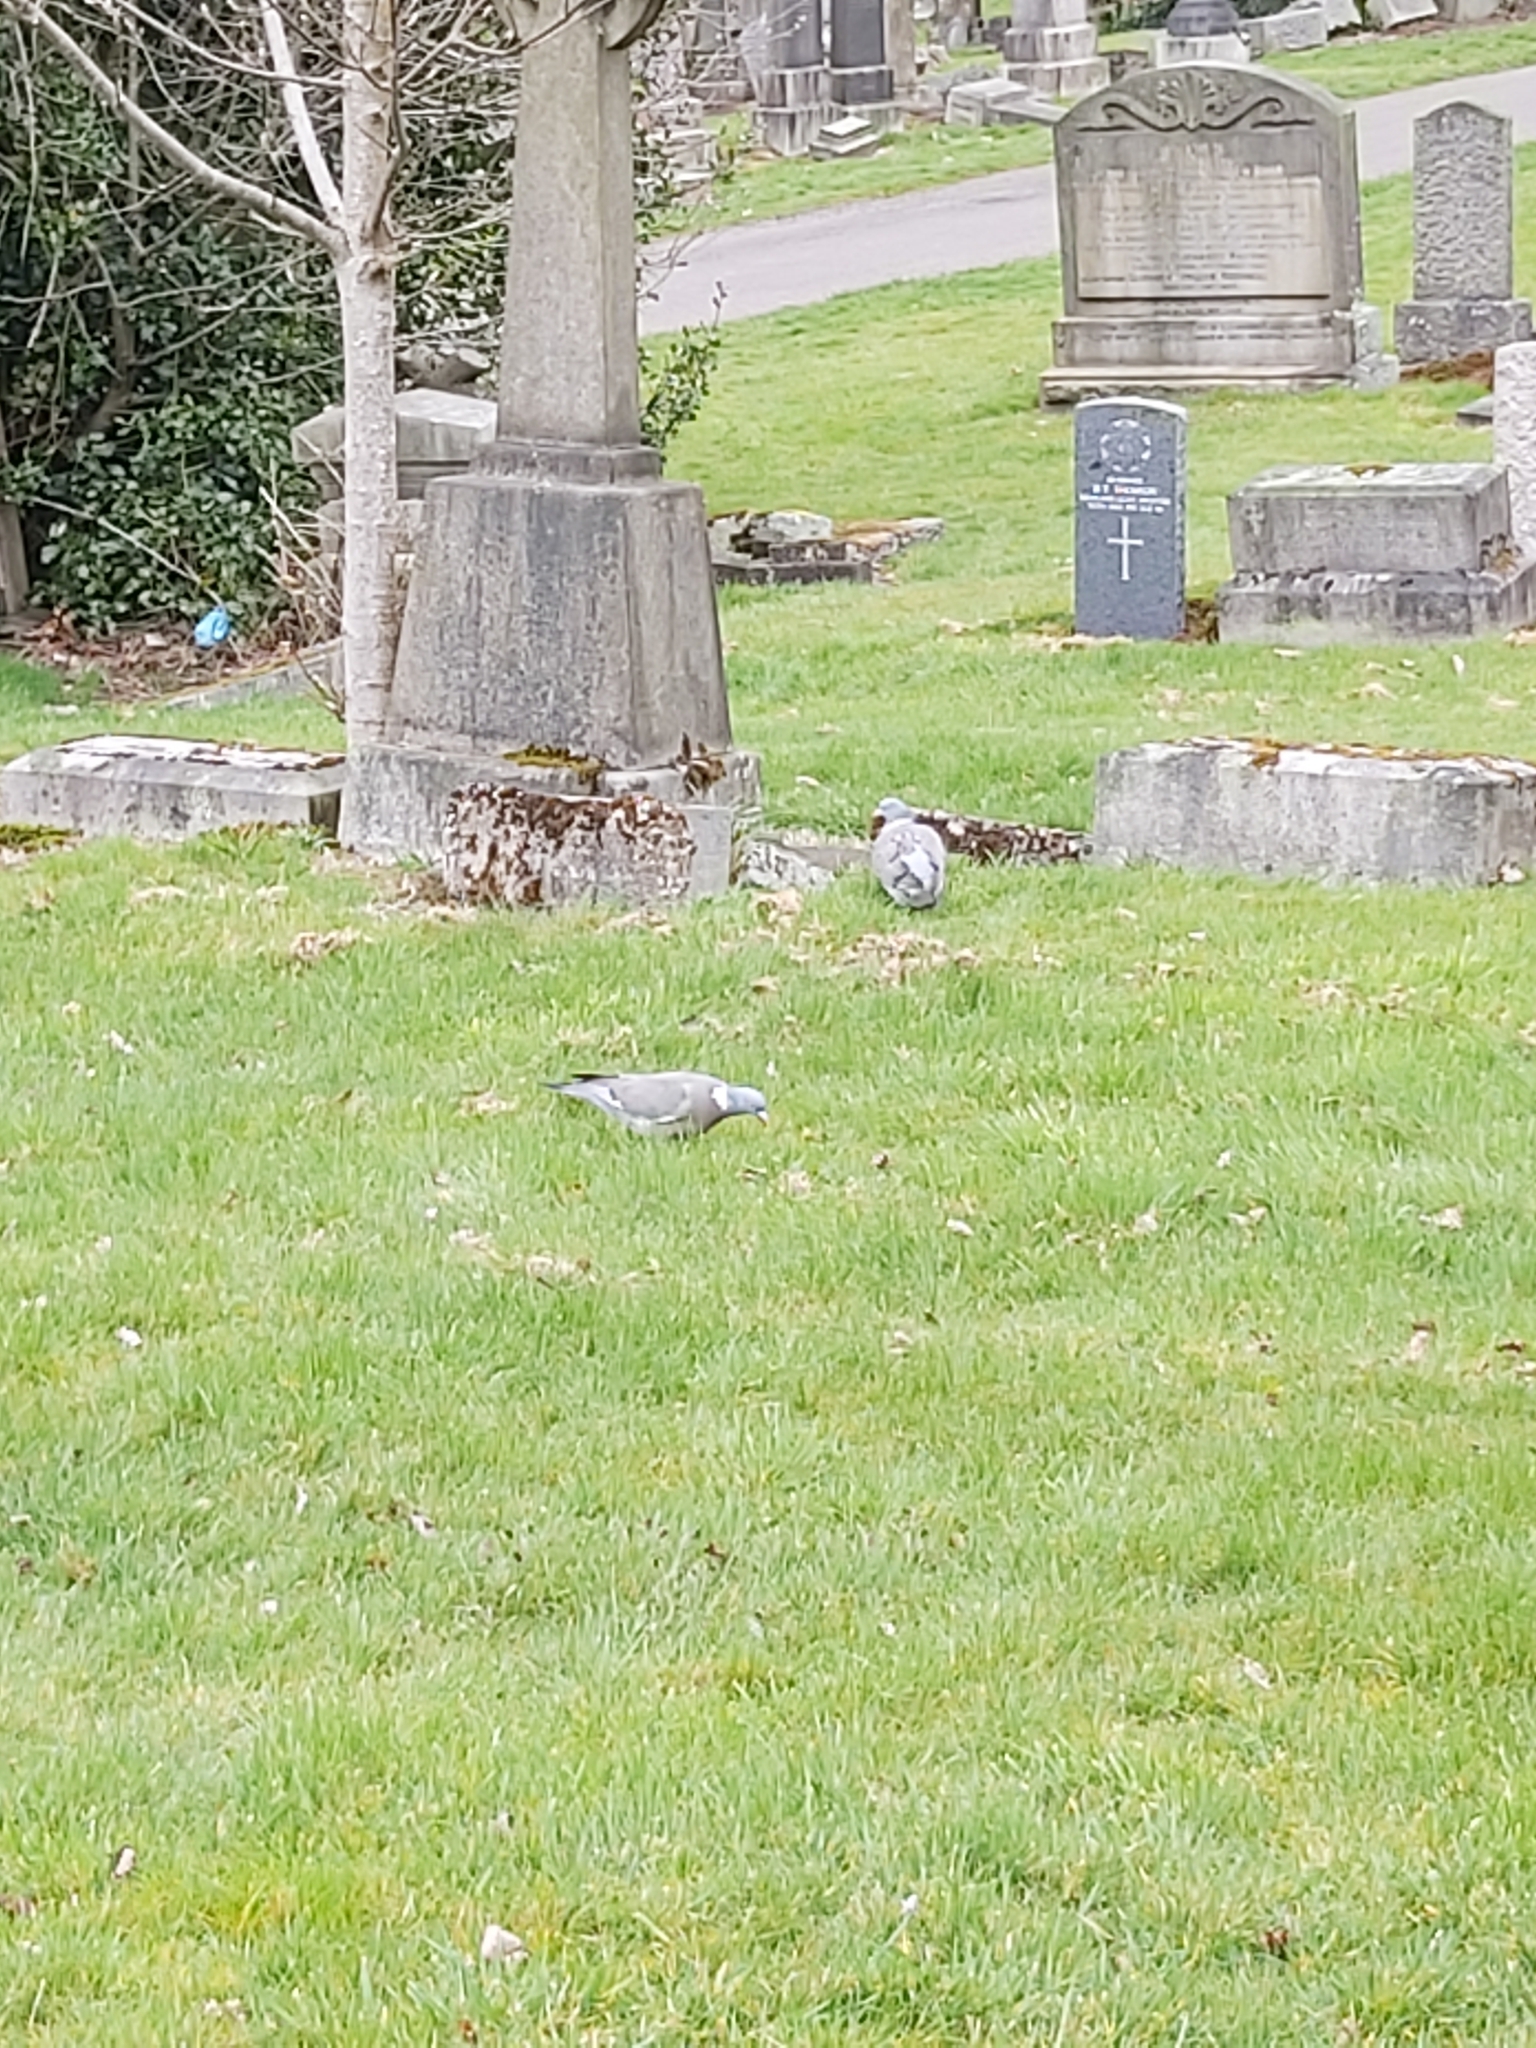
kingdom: Animalia
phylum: Chordata
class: Aves
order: Columbiformes
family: Columbidae
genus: Columba
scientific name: Columba palumbus
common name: Common wood pigeon
